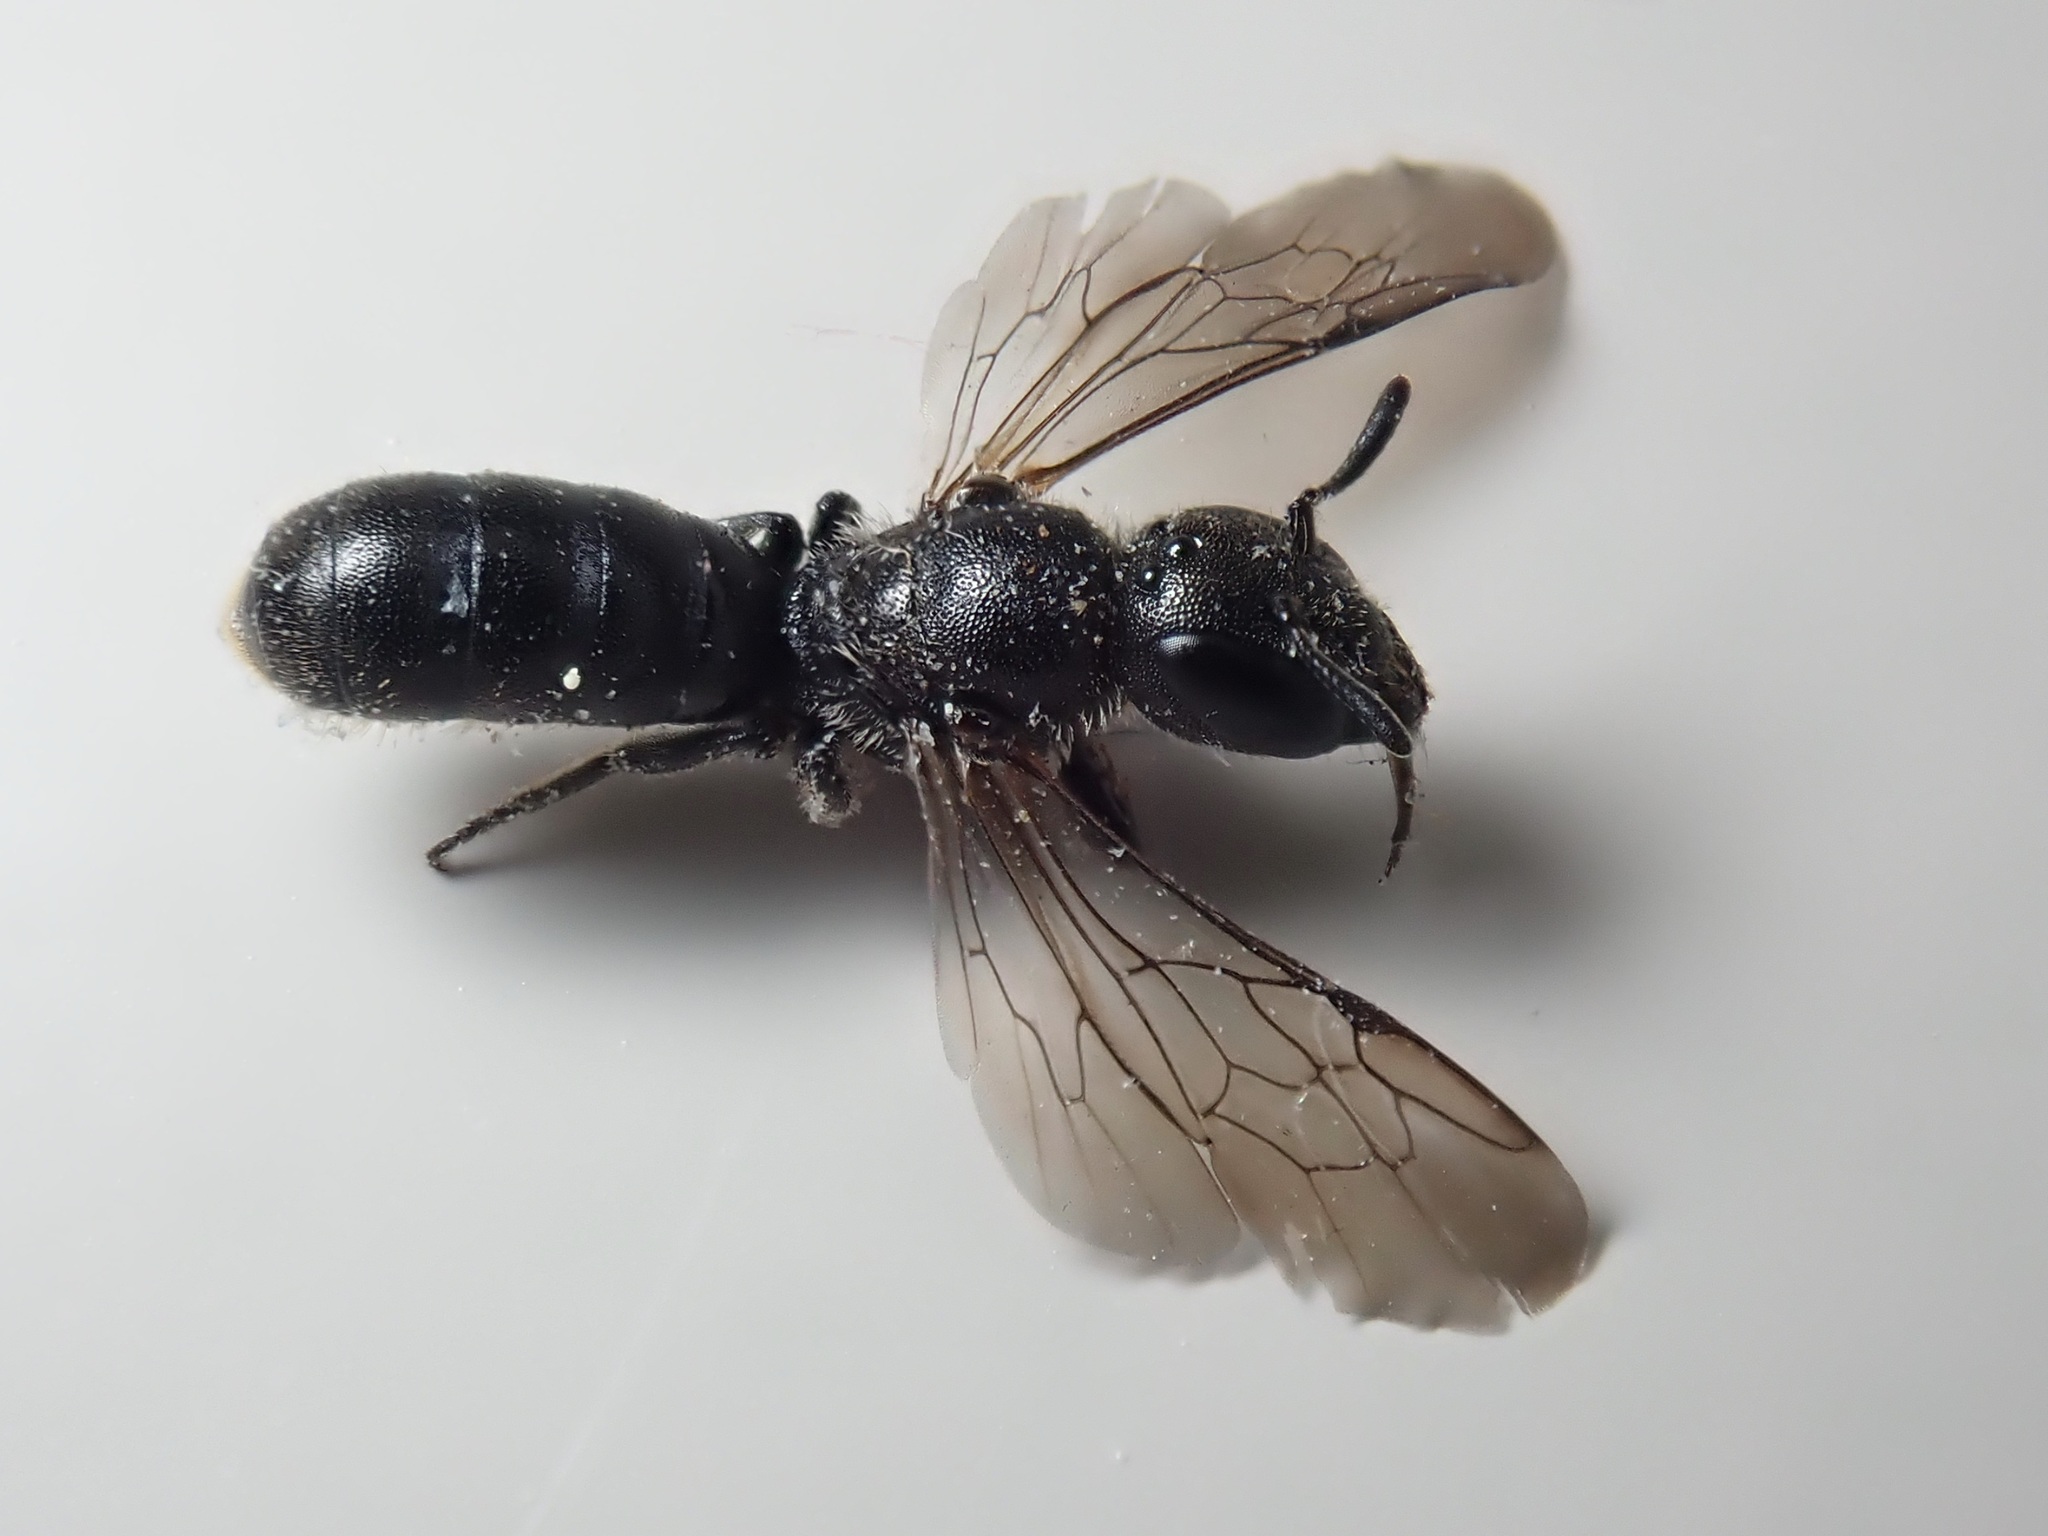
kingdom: Animalia
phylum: Arthropoda
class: Insecta
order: Hymenoptera
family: Megachilidae
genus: Chelostoma
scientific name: Chelostoma campanularum
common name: Small scissor bee
